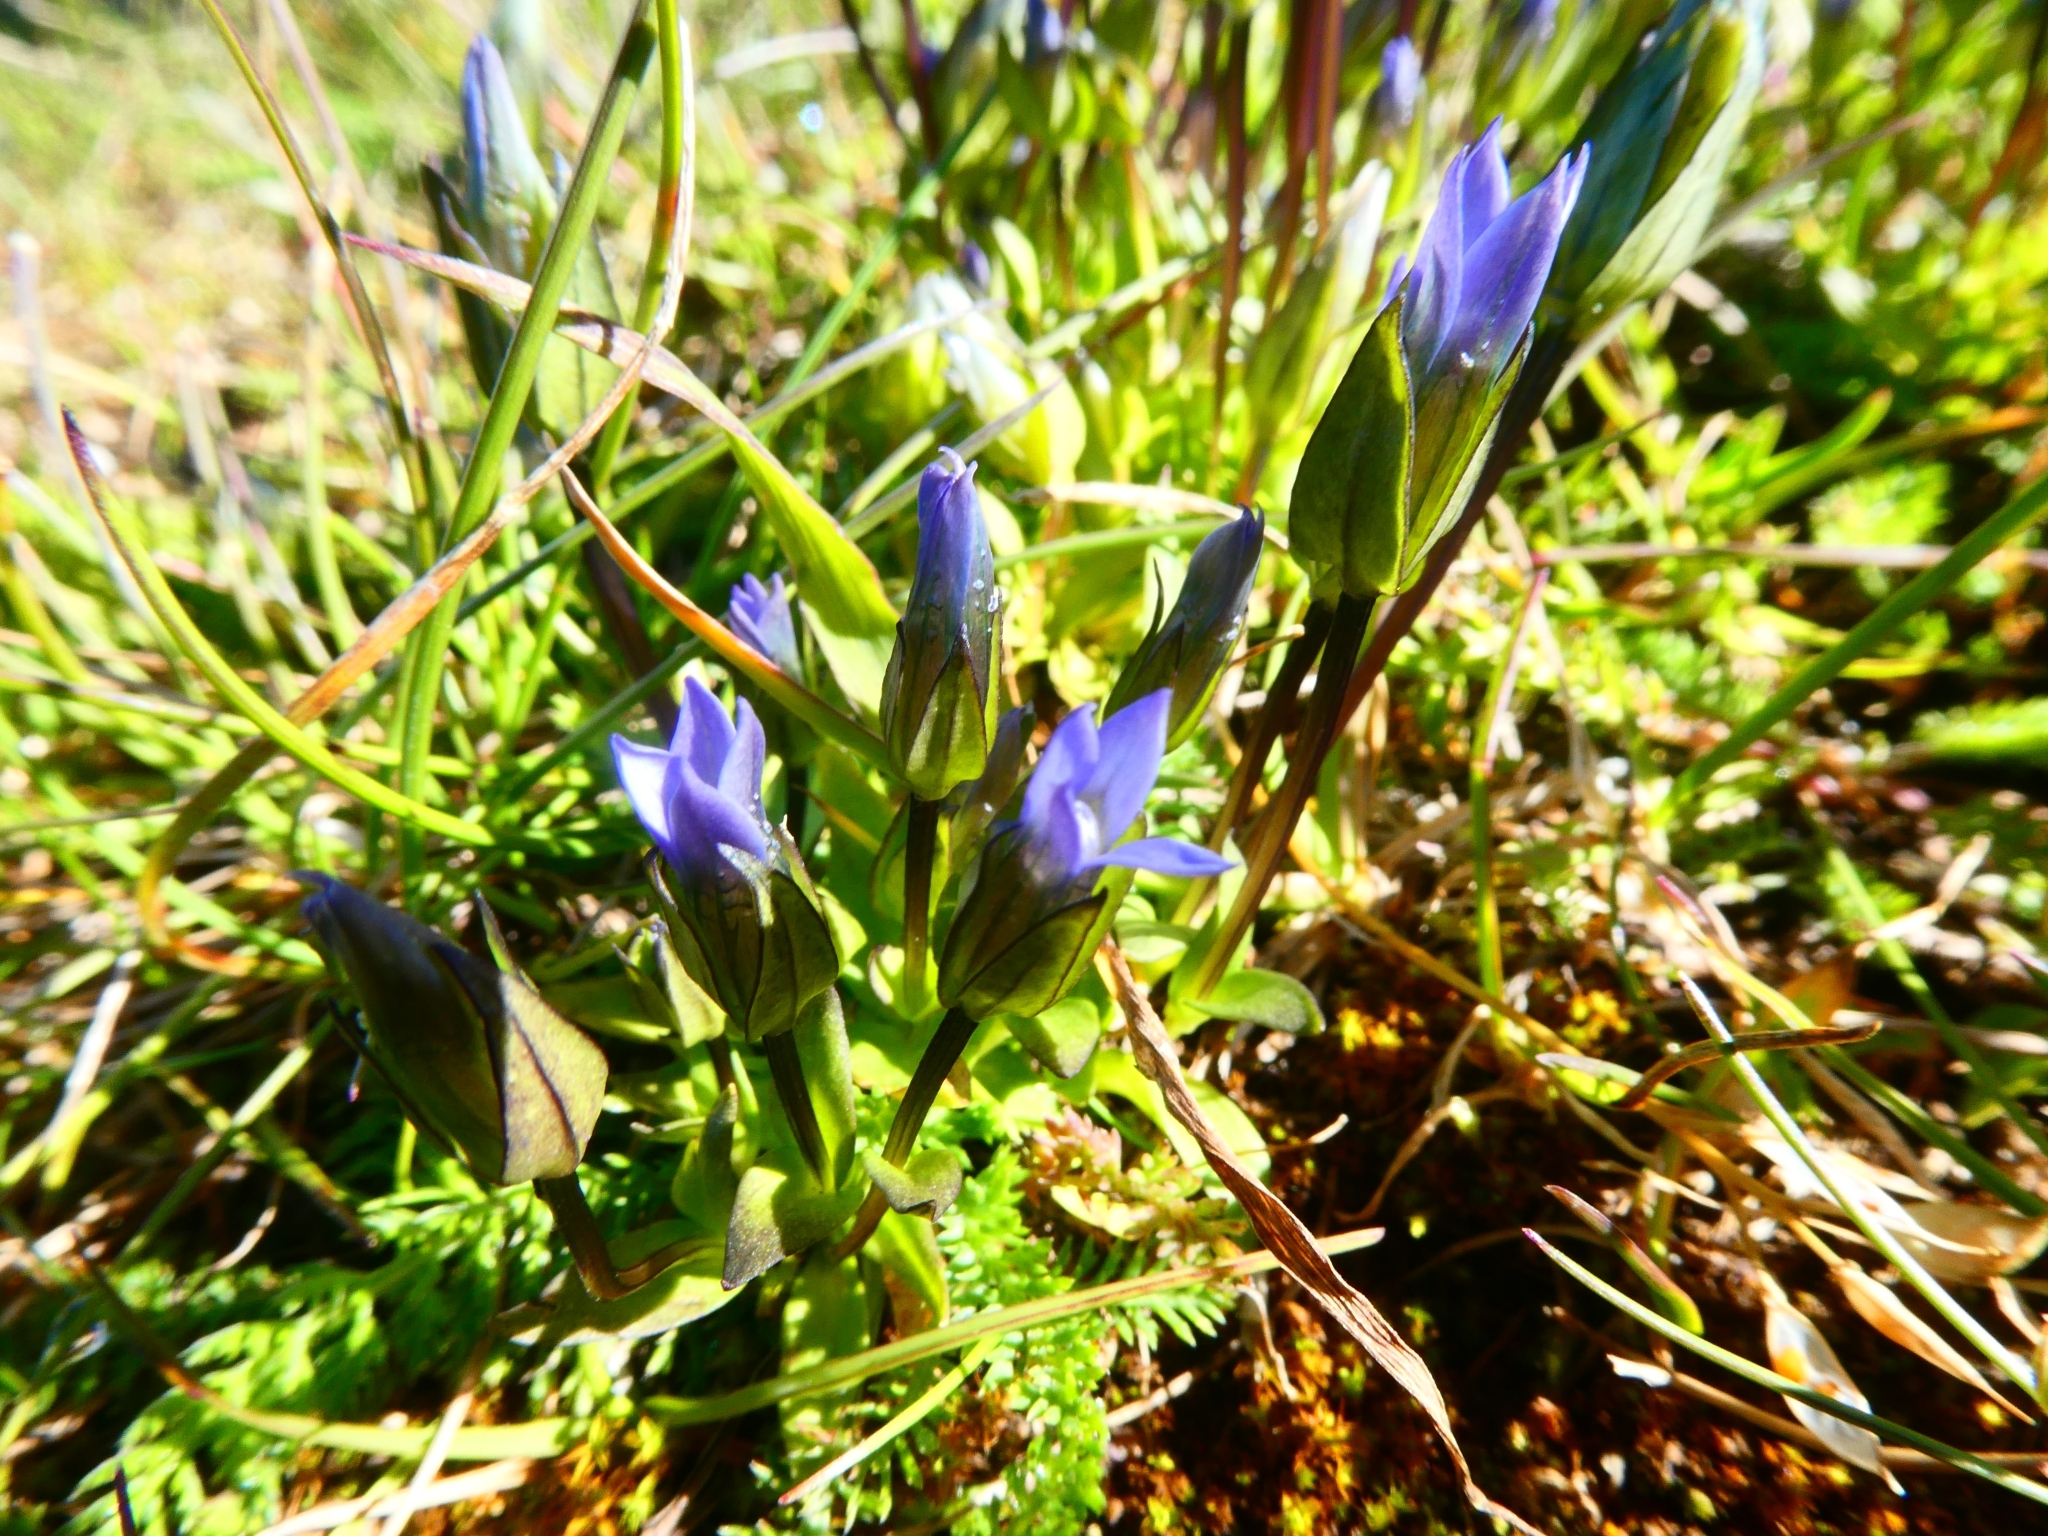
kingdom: Plantae
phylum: Tracheophyta
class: Magnoliopsida
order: Gentianales
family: Gentianaceae
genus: Comastoma
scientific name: Comastoma tenellum
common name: Dane's dwarf gentian
